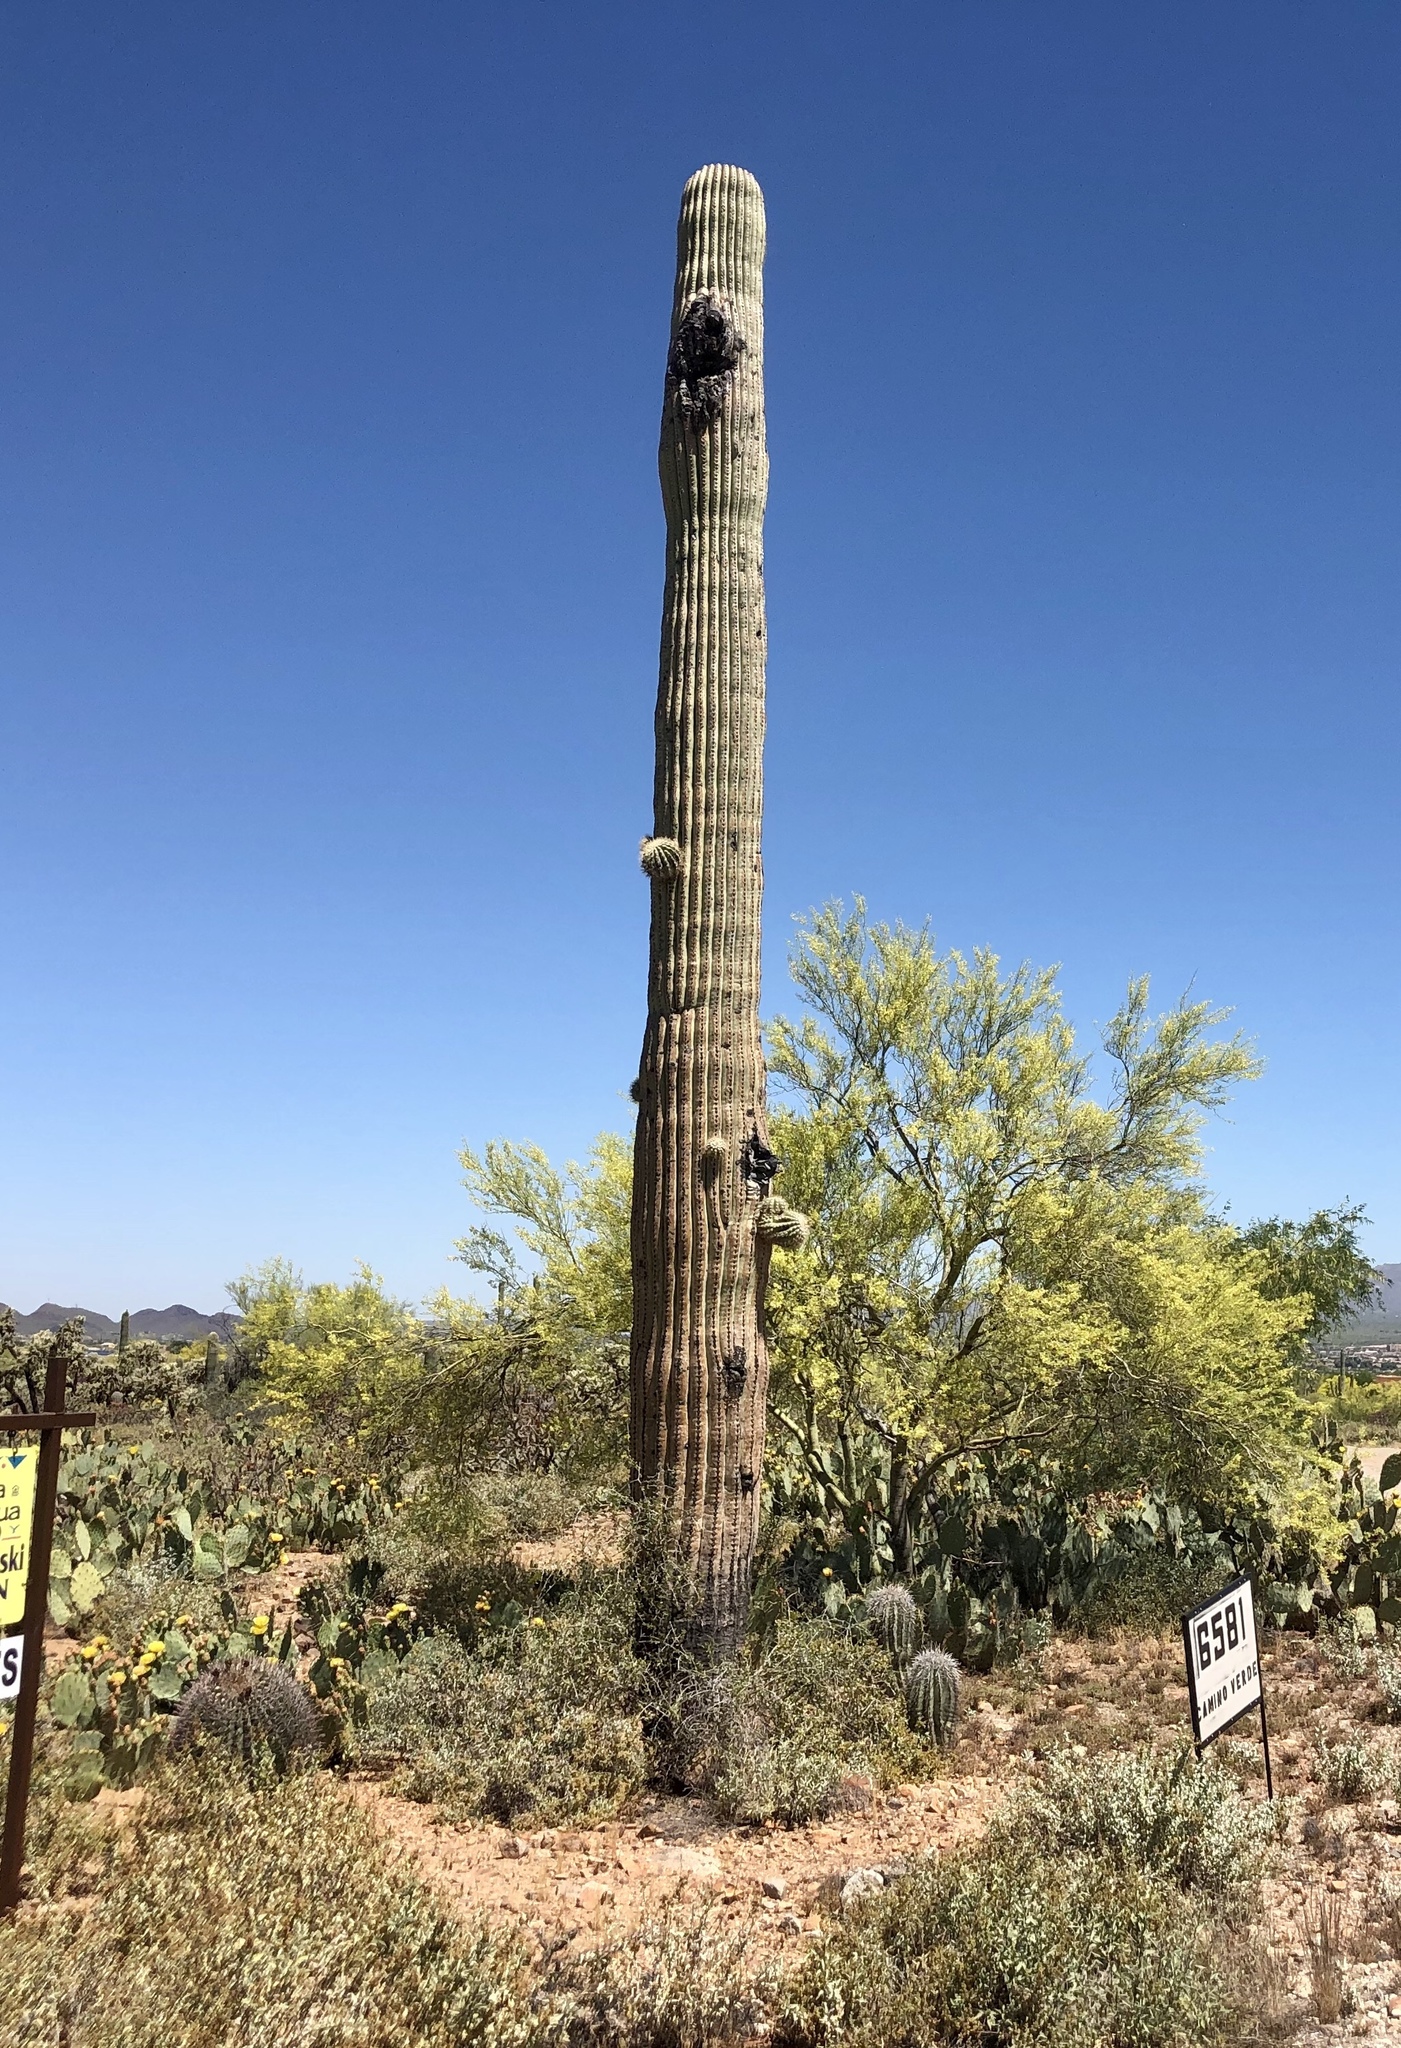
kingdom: Plantae
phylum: Tracheophyta
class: Magnoliopsida
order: Caryophyllales
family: Cactaceae
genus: Carnegiea
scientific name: Carnegiea gigantea
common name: Saguaro
